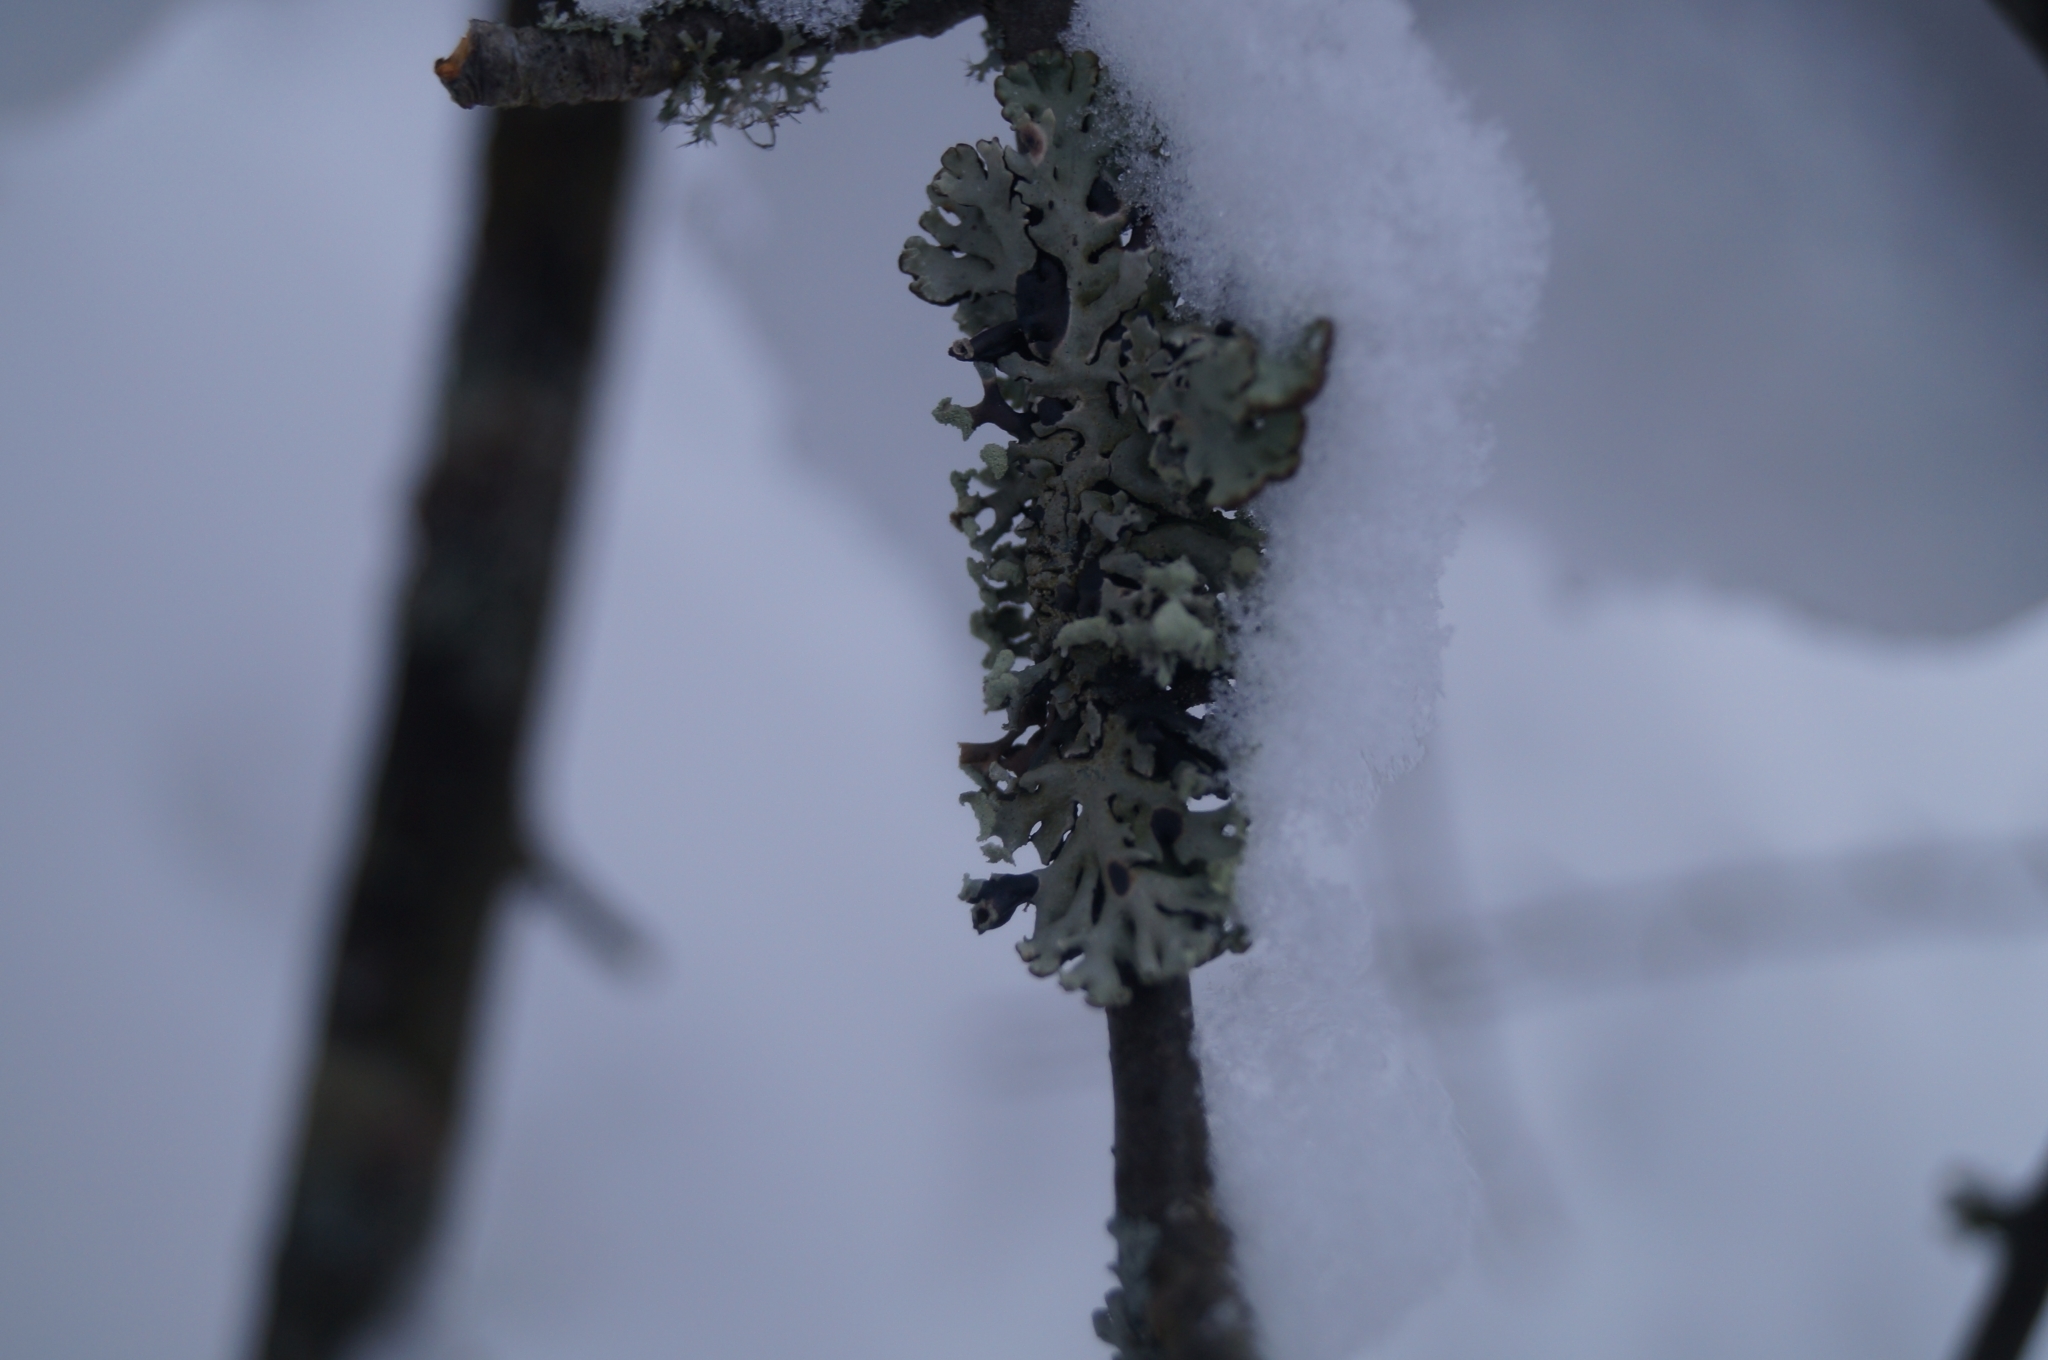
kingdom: Fungi
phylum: Ascomycota
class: Lecanoromycetes
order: Lecanorales
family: Parmeliaceae
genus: Hypogymnia
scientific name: Hypogymnia physodes
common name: Dark crottle
